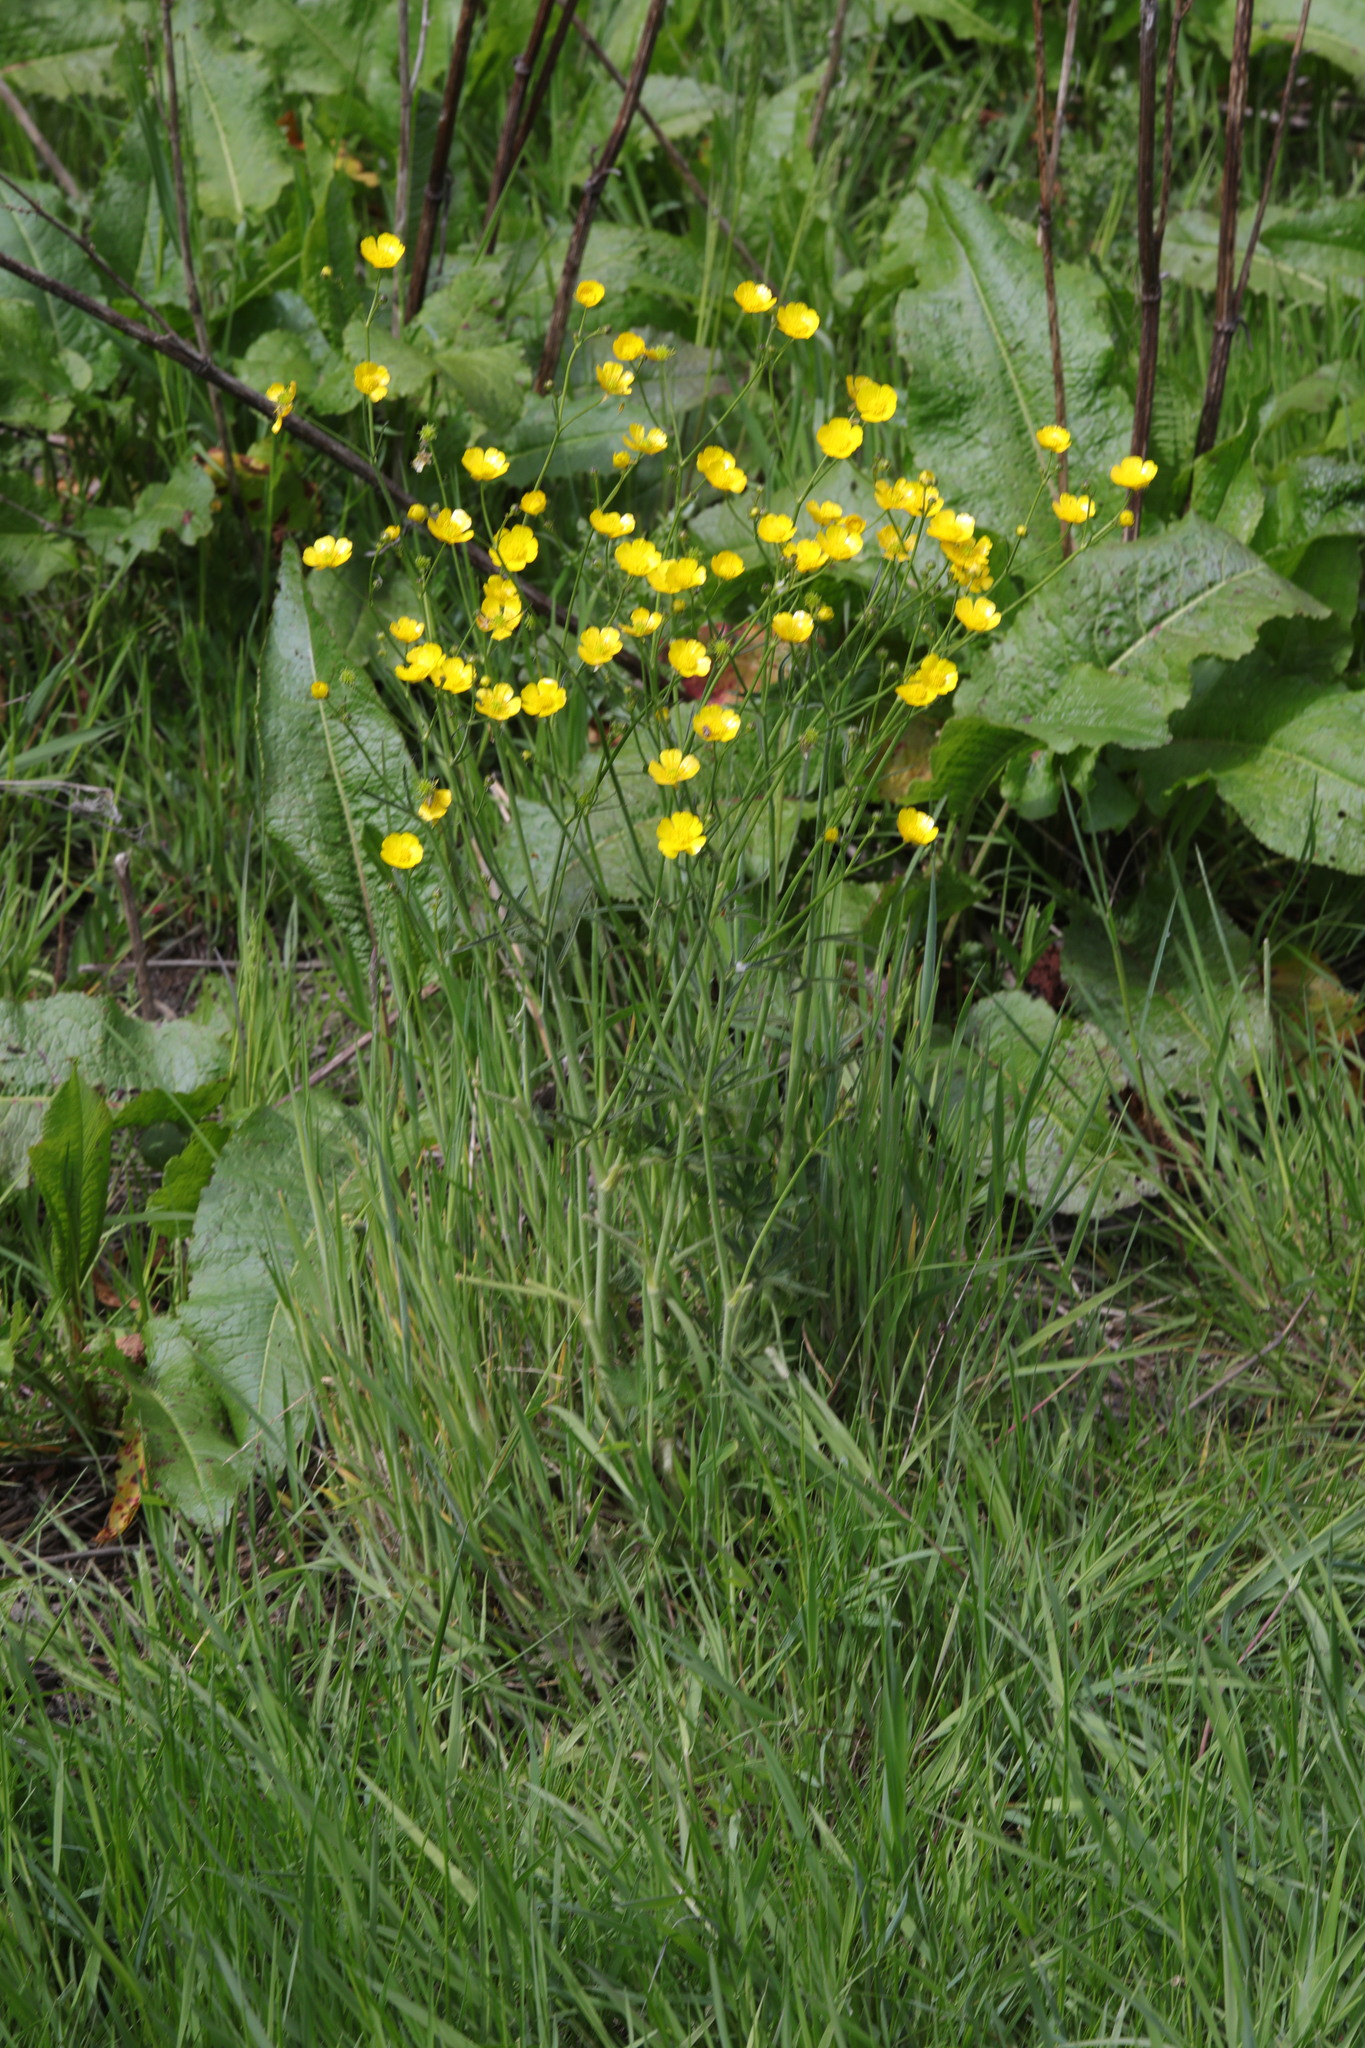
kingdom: Plantae
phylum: Tracheophyta
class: Magnoliopsida
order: Ranunculales
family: Ranunculaceae
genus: Ranunculus
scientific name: Ranunculus acris
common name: Meadow buttercup
